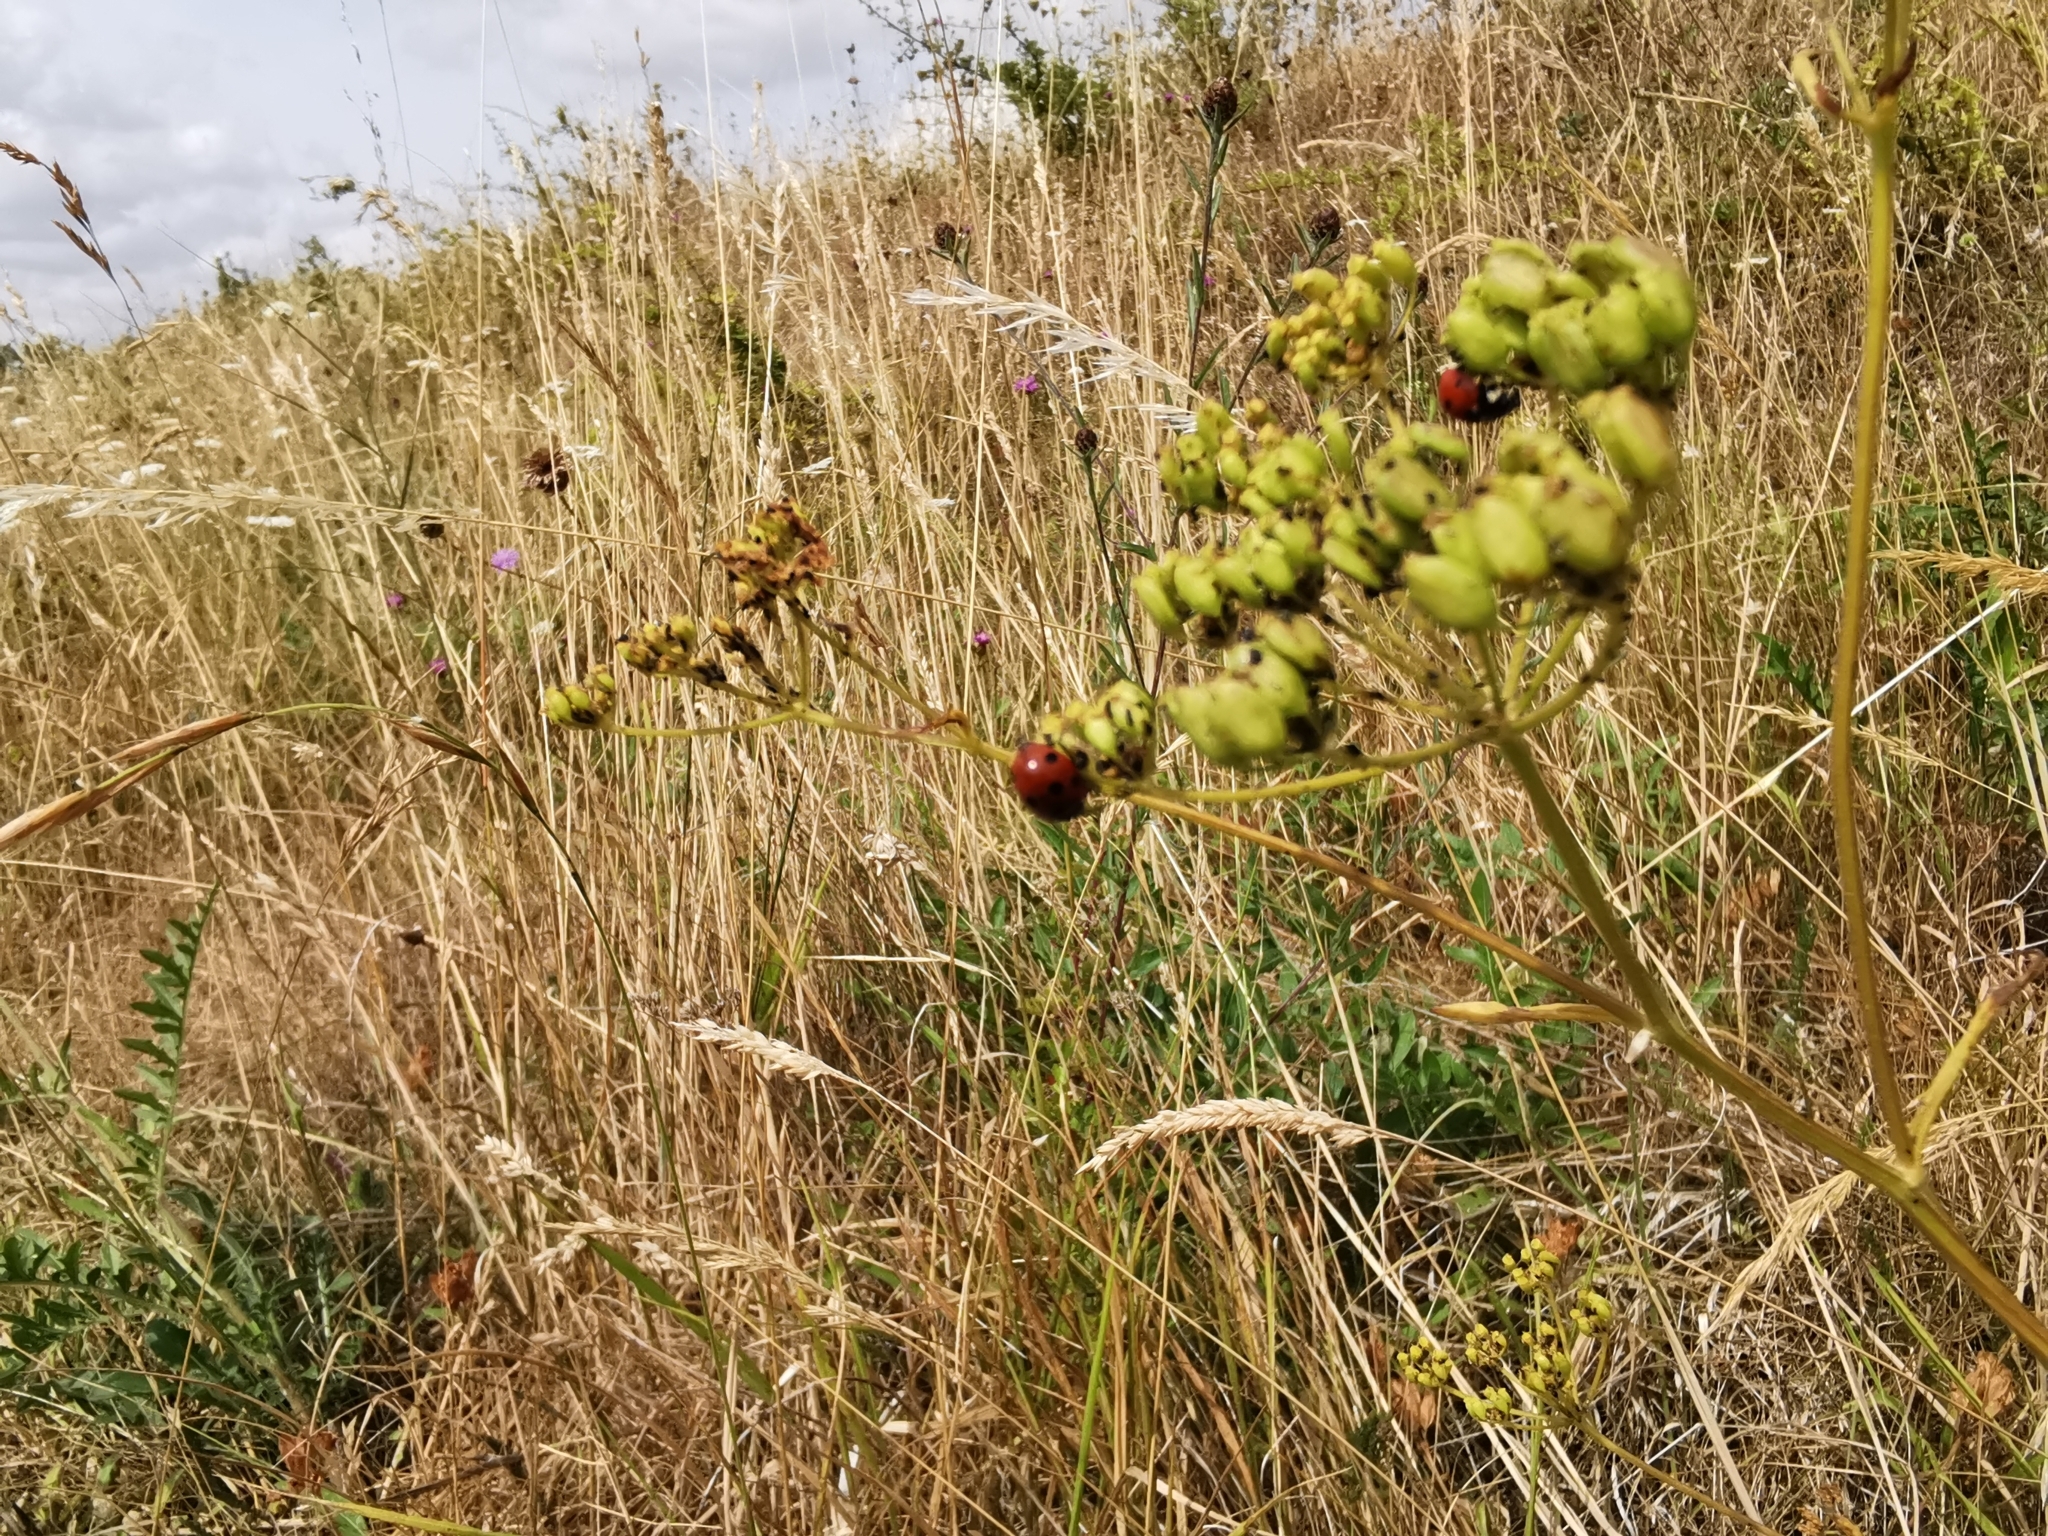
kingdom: Animalia
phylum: Arthropoda
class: Insecta
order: Coleoptera
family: Coccinellidae
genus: Coccinella
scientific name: Coccinella septempunctata
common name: Sevenspotted lady beetle
